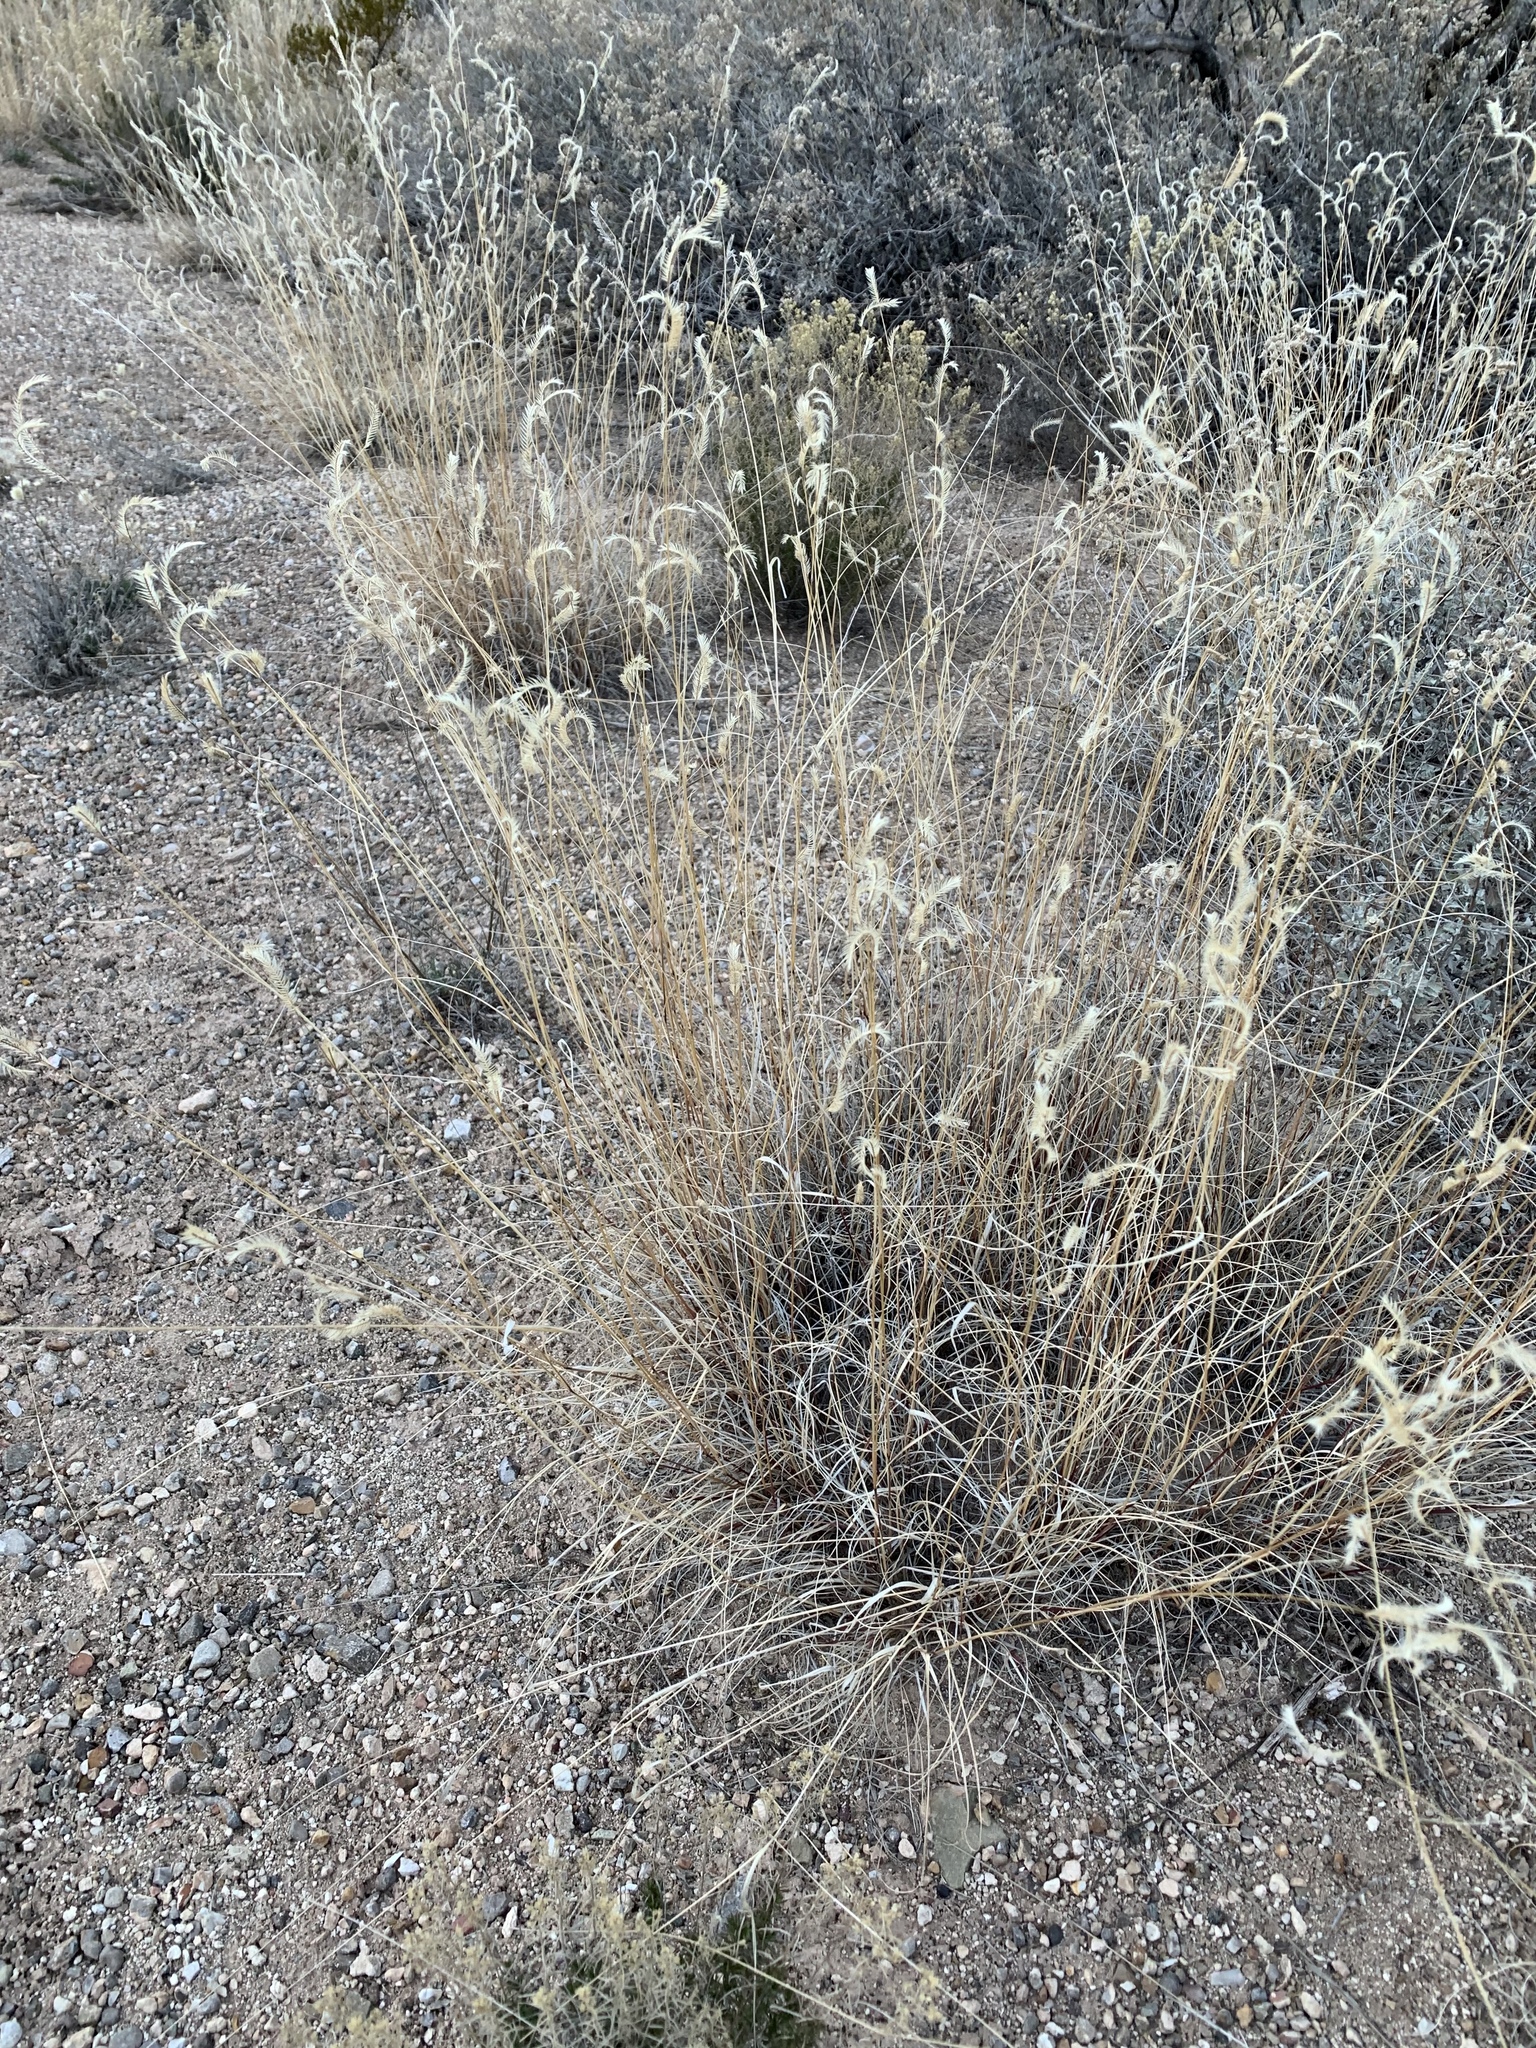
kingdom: Plantae
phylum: Tracheophyta
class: Liliopsida
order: Poales
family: Poaceae
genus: Bouteloua
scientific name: Bouteloua gracilis
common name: Blue grama
